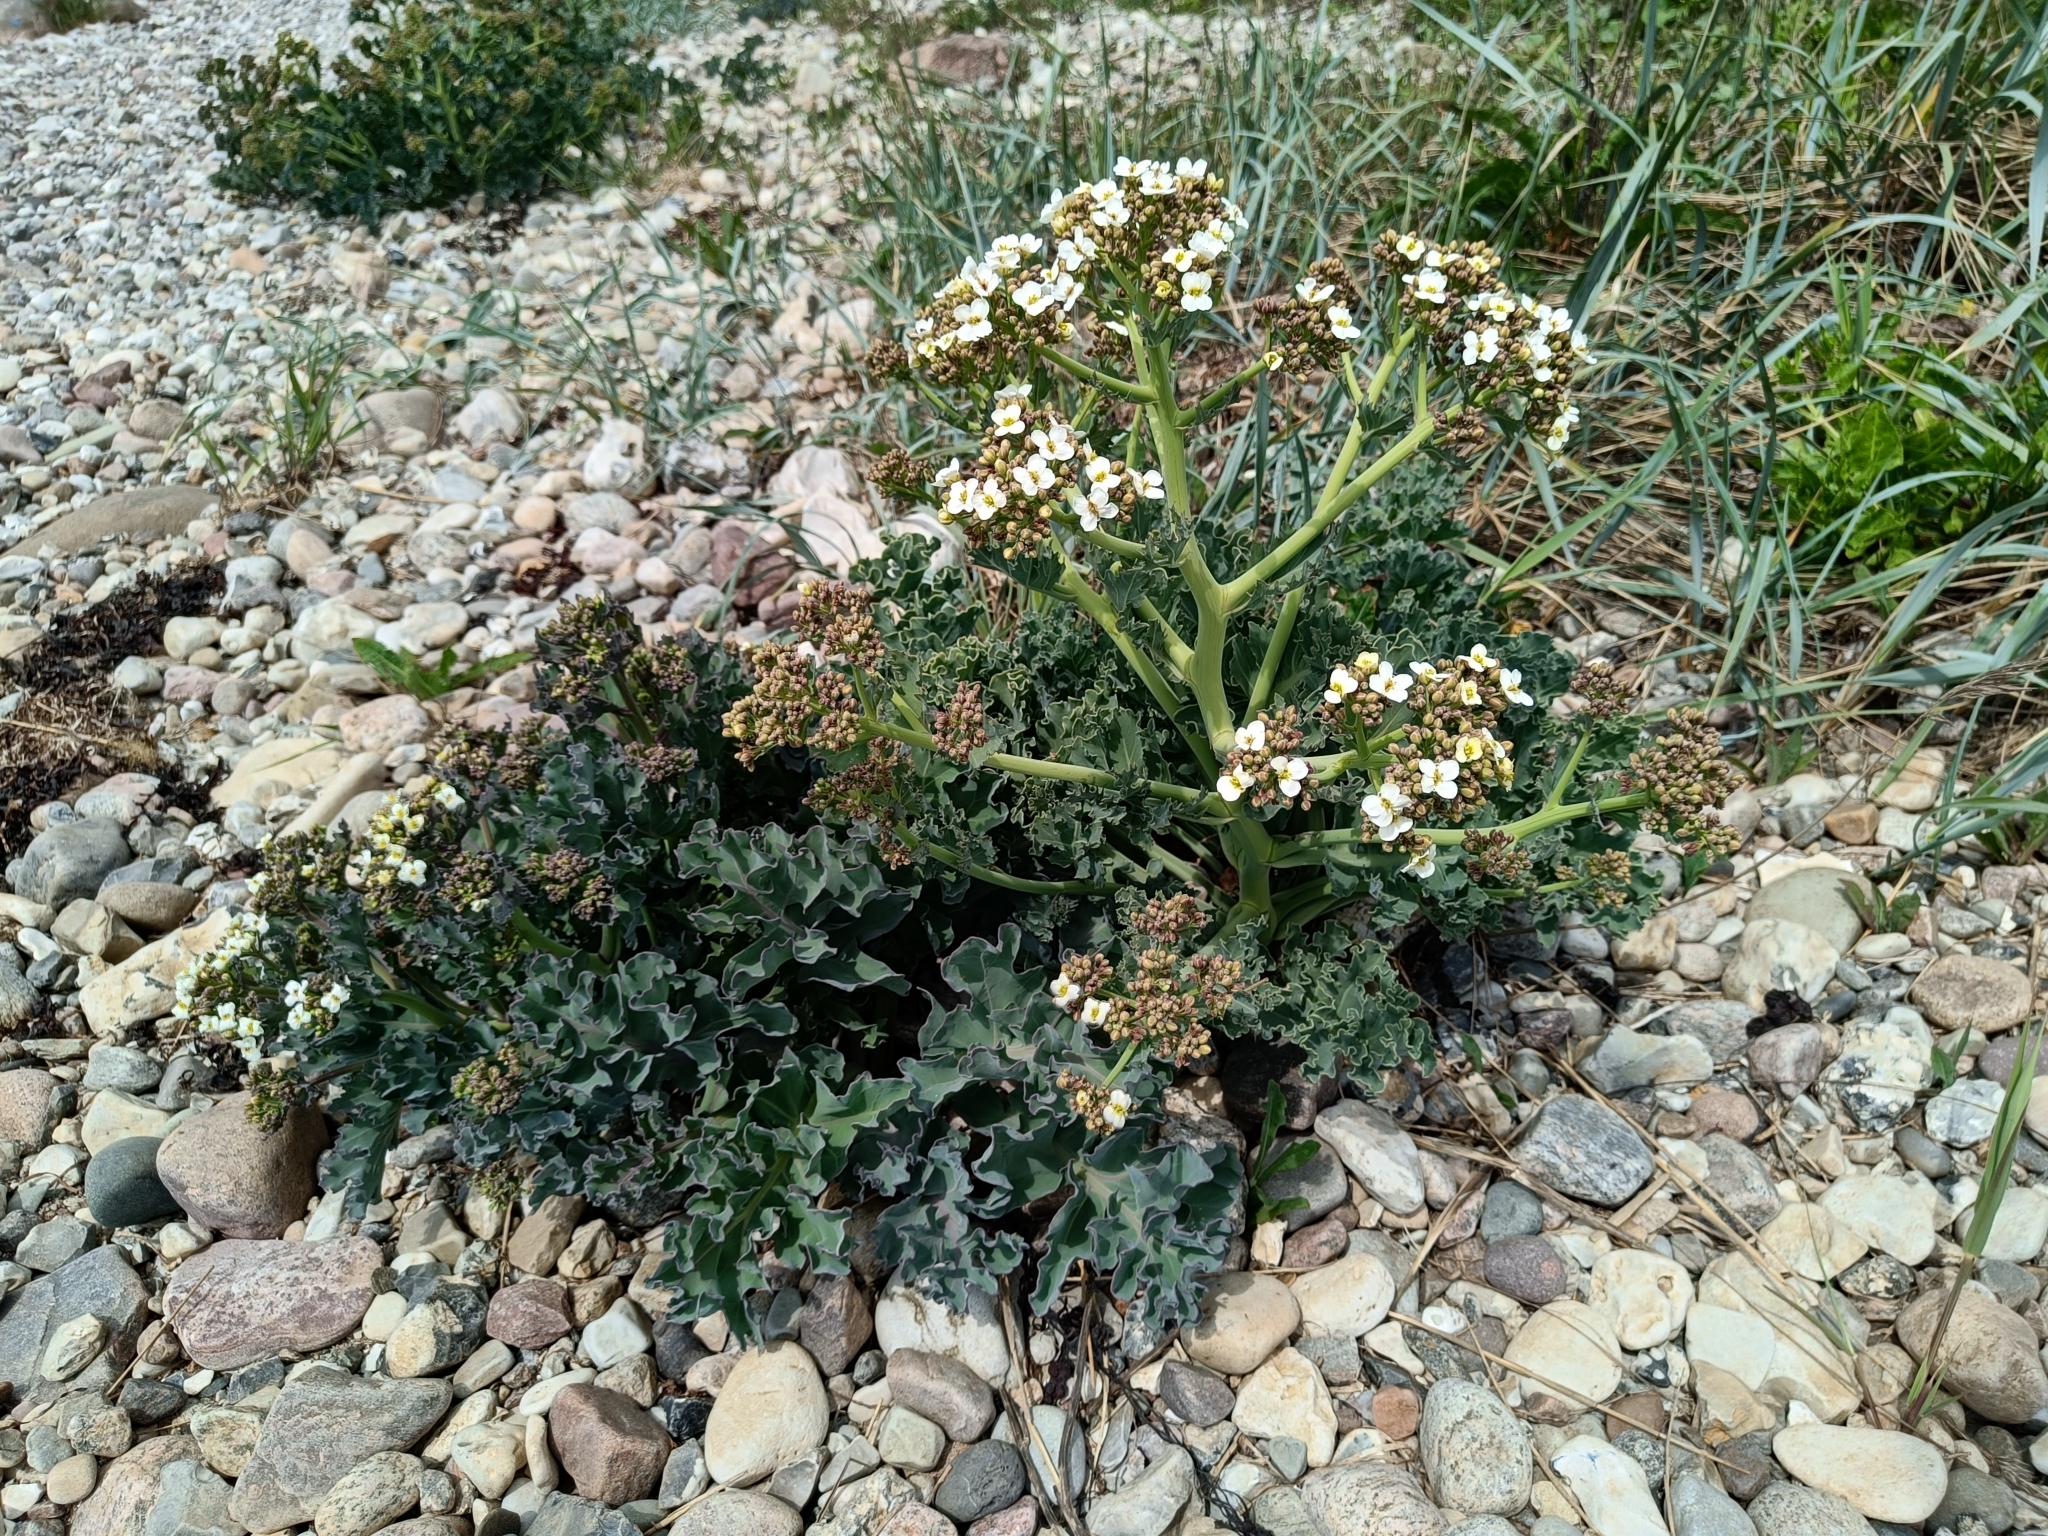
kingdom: Plantae
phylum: Tracheophyta
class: Magnoliopsida
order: Brassicales
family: Brassicaceae
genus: Crambe
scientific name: Crambe maritima
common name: Sea-kale
